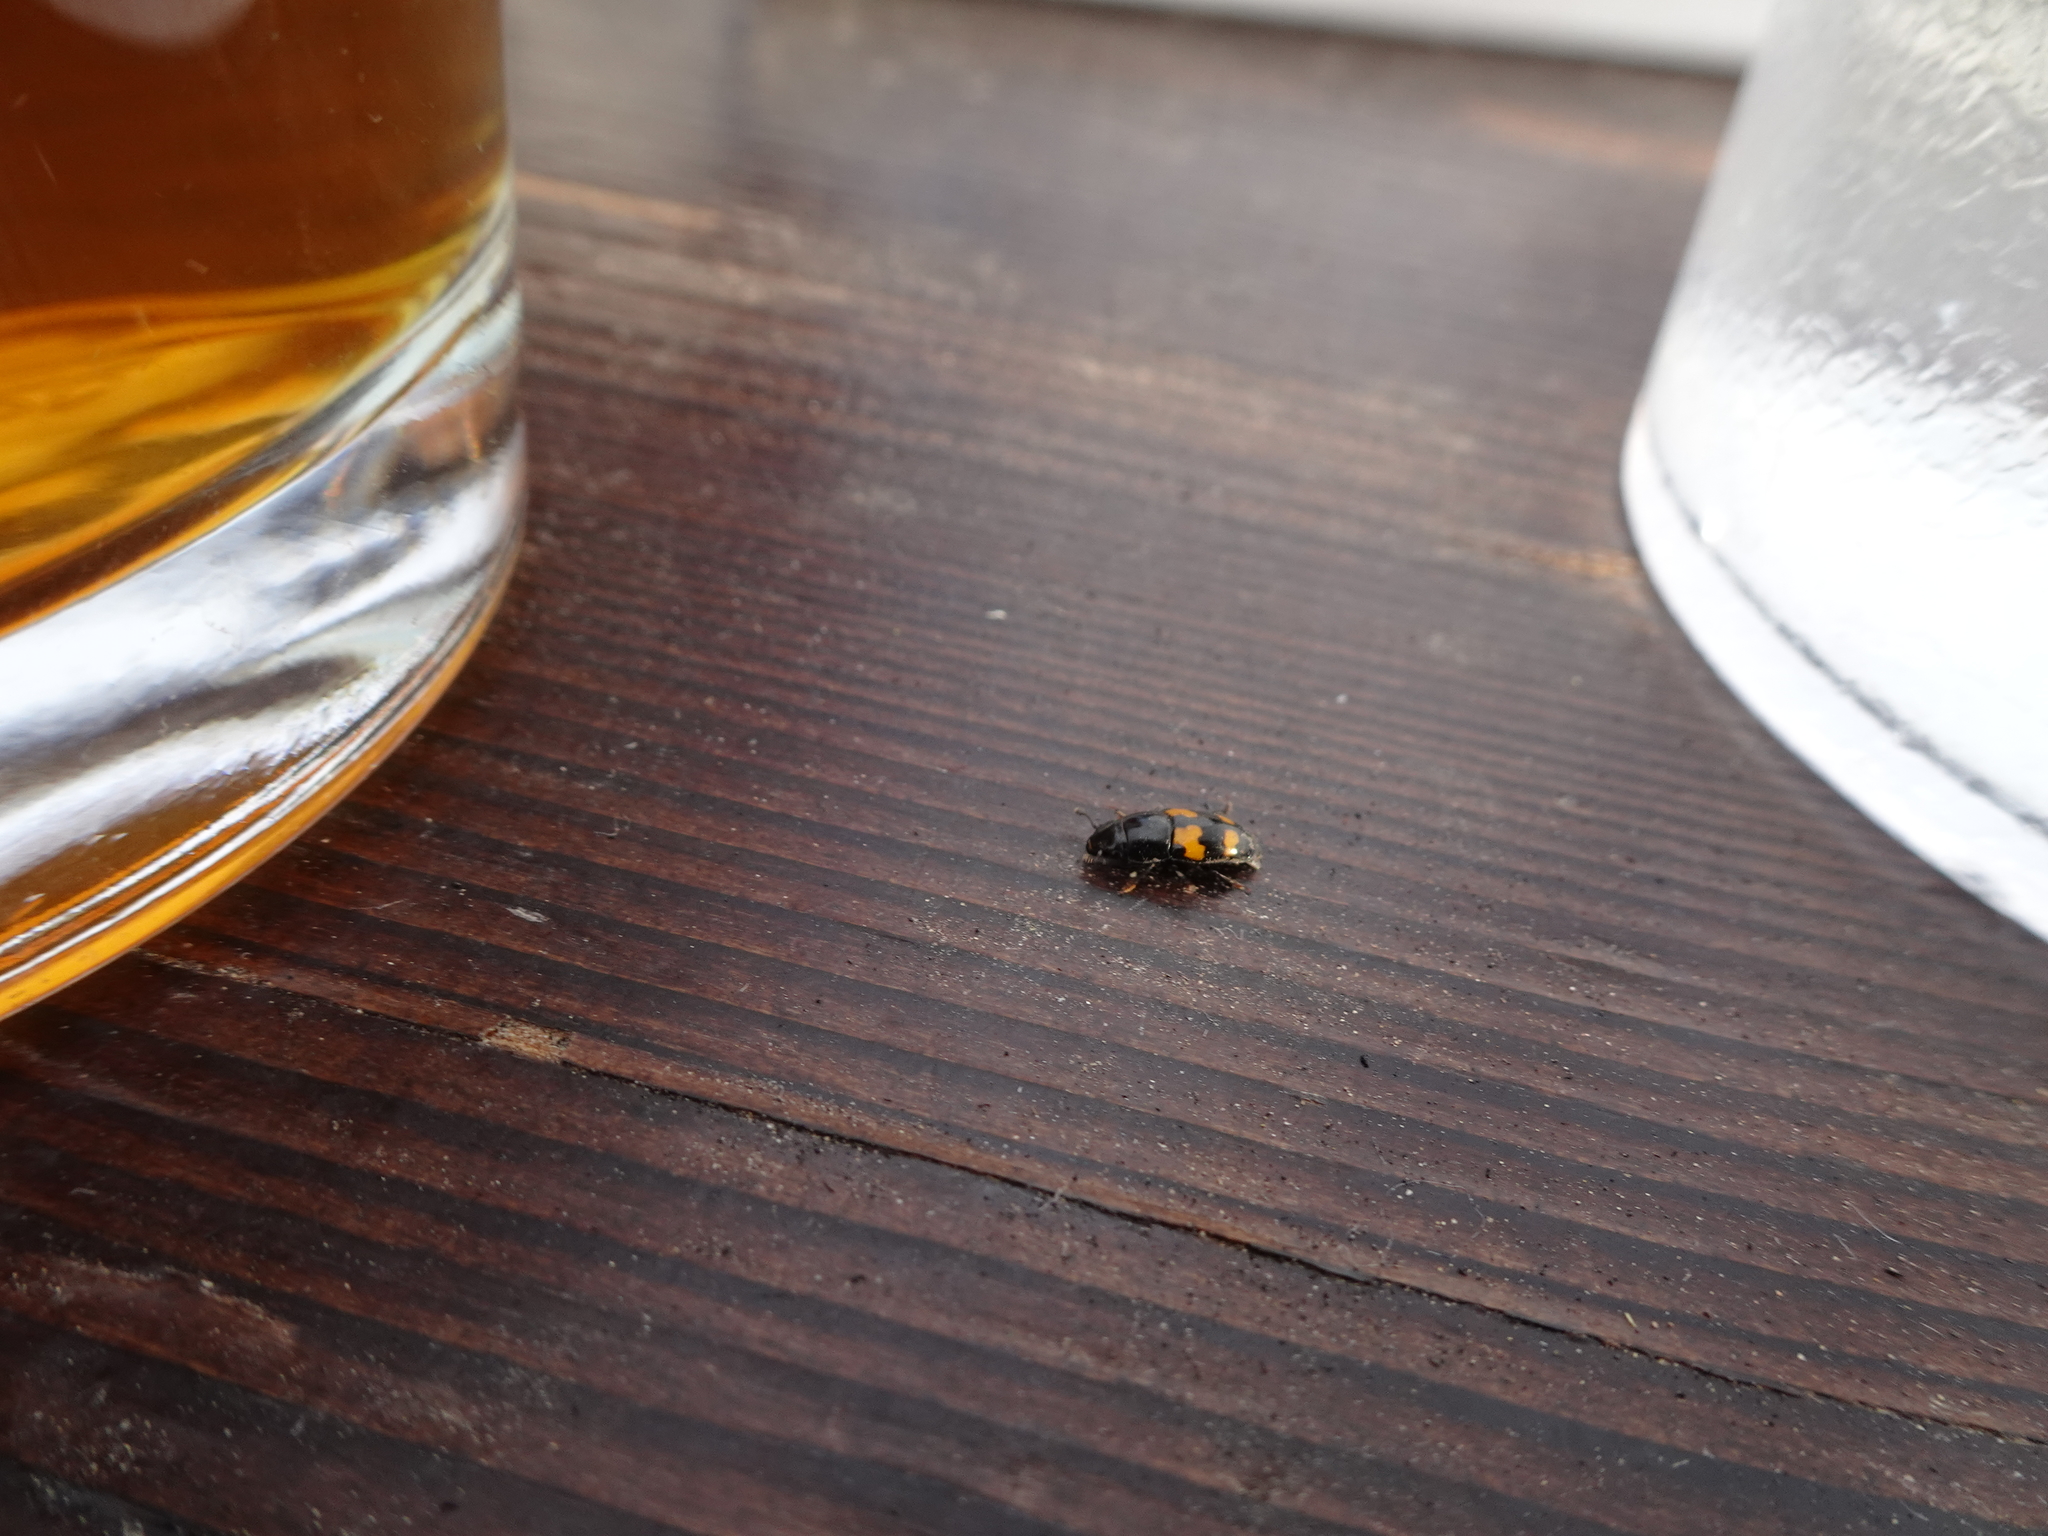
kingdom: Animalia
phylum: Arthropoda
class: Insecta
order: Coleoptera
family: Nitidulidae
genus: Glischrochilus
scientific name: Glischrochilus fasciatus
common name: Picnic beetle
